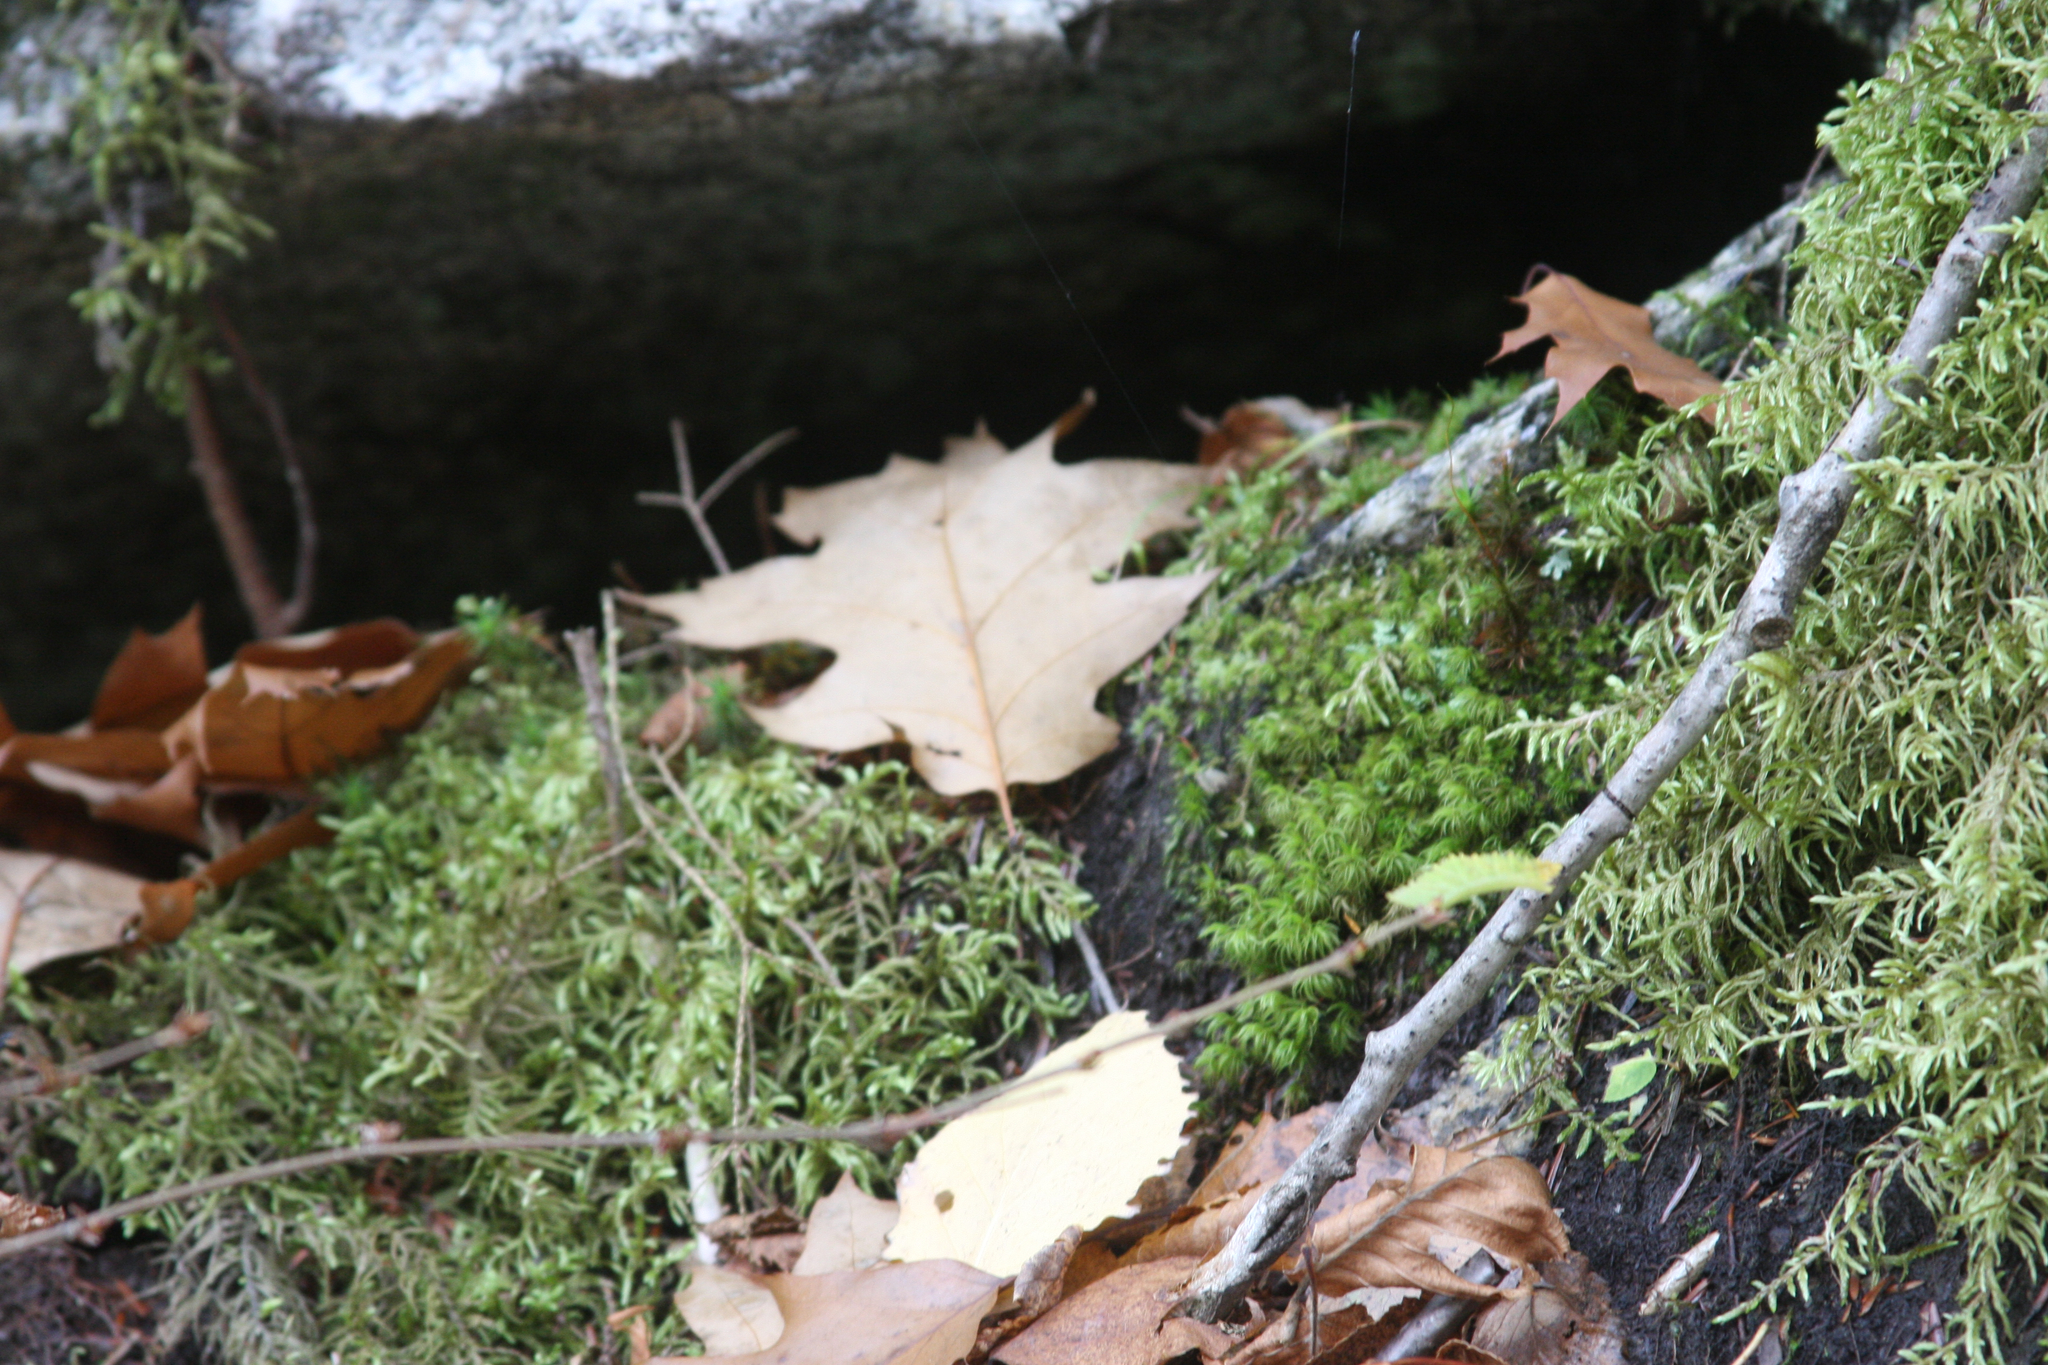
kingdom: Plantae
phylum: Tracheophyta
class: Magnoliopsida
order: Fagales
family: Fagaceae
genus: Quercus
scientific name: Quercus rubra
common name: Red oak
